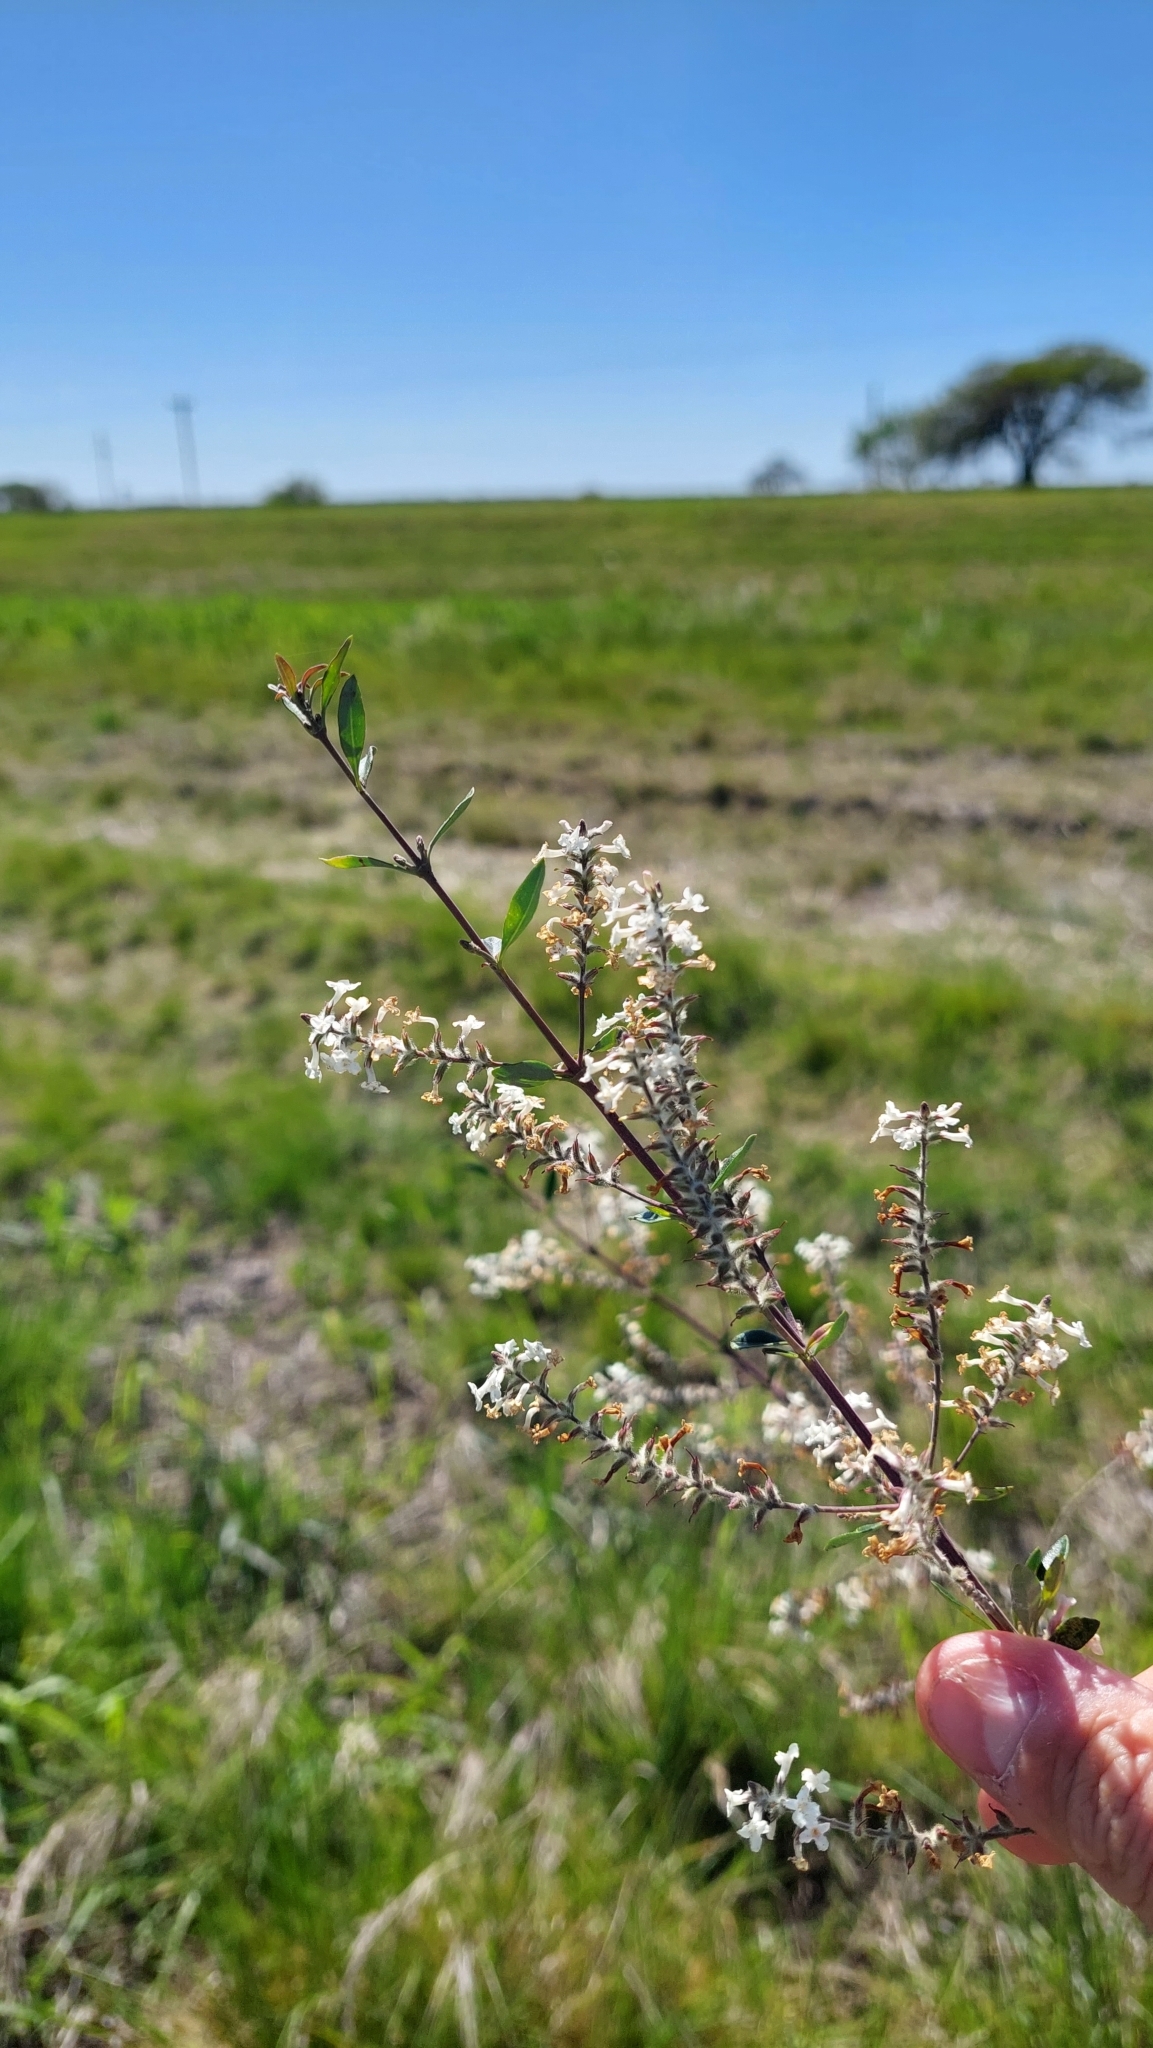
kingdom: Plantae
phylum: Tracheophyta
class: Magnoliopsida
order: Lamiales
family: Verbenaceae
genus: Aloysia
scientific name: Aloysia gratissima
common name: Common bee-brush
